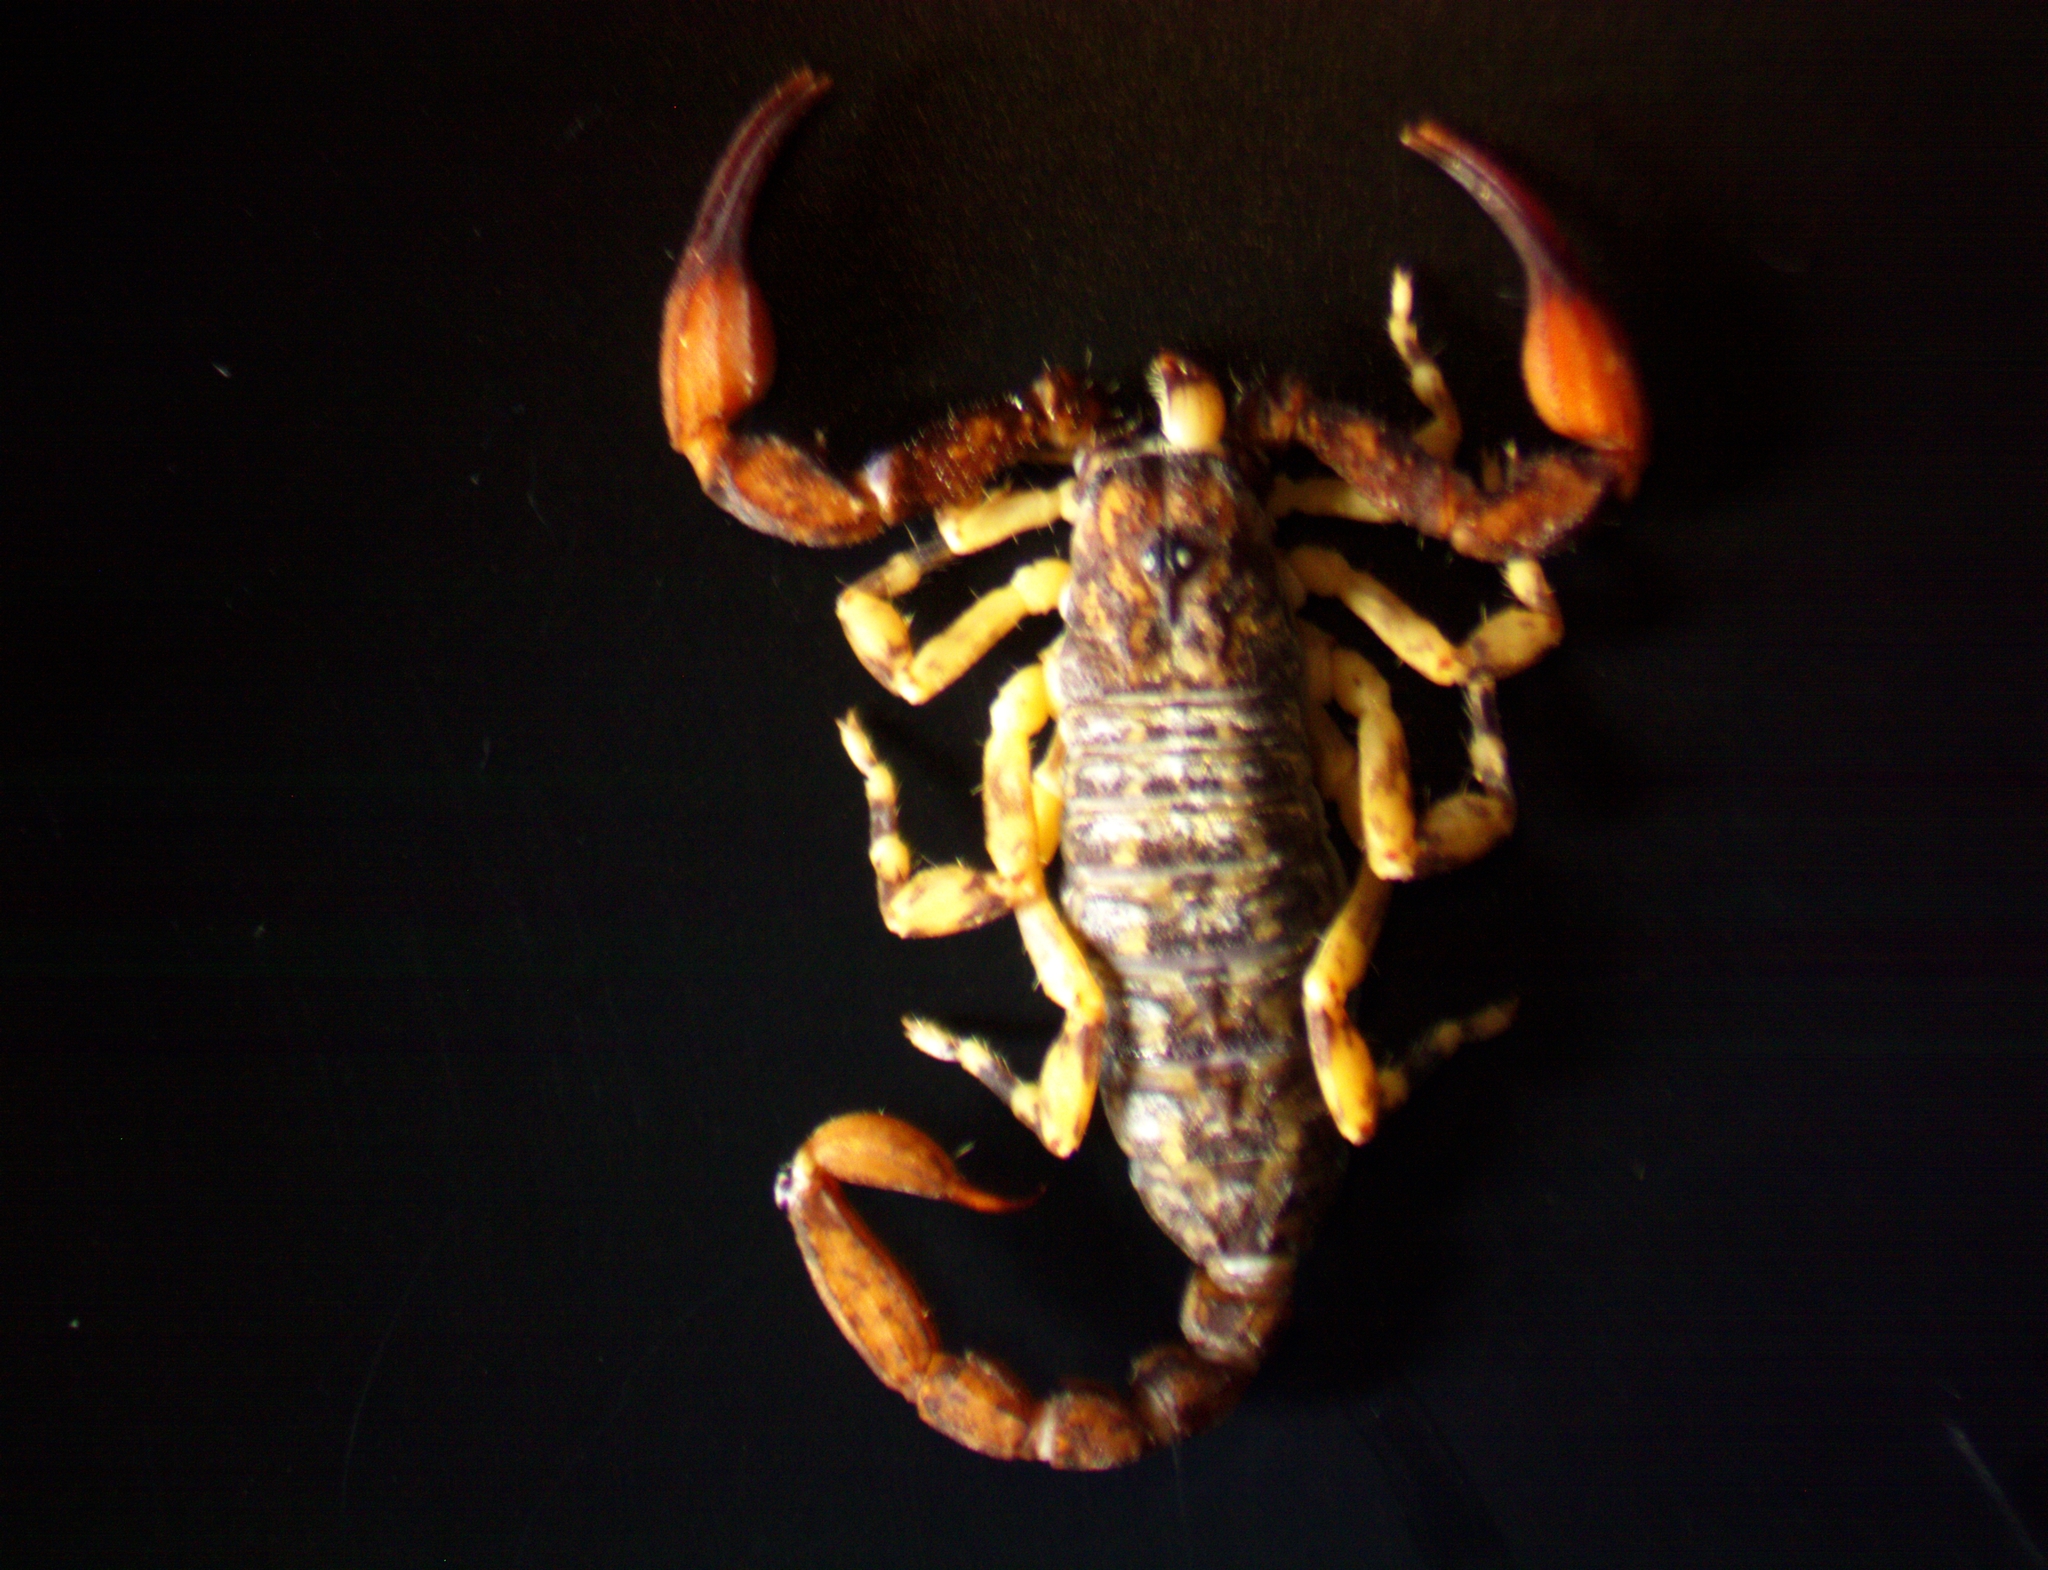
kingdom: Animalia
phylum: Arthropoda
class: Arachnida
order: Scorpiones
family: Euscorpiidae
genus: Plesiochactas
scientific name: Plesiochactas vasquezi
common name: Scorpions
